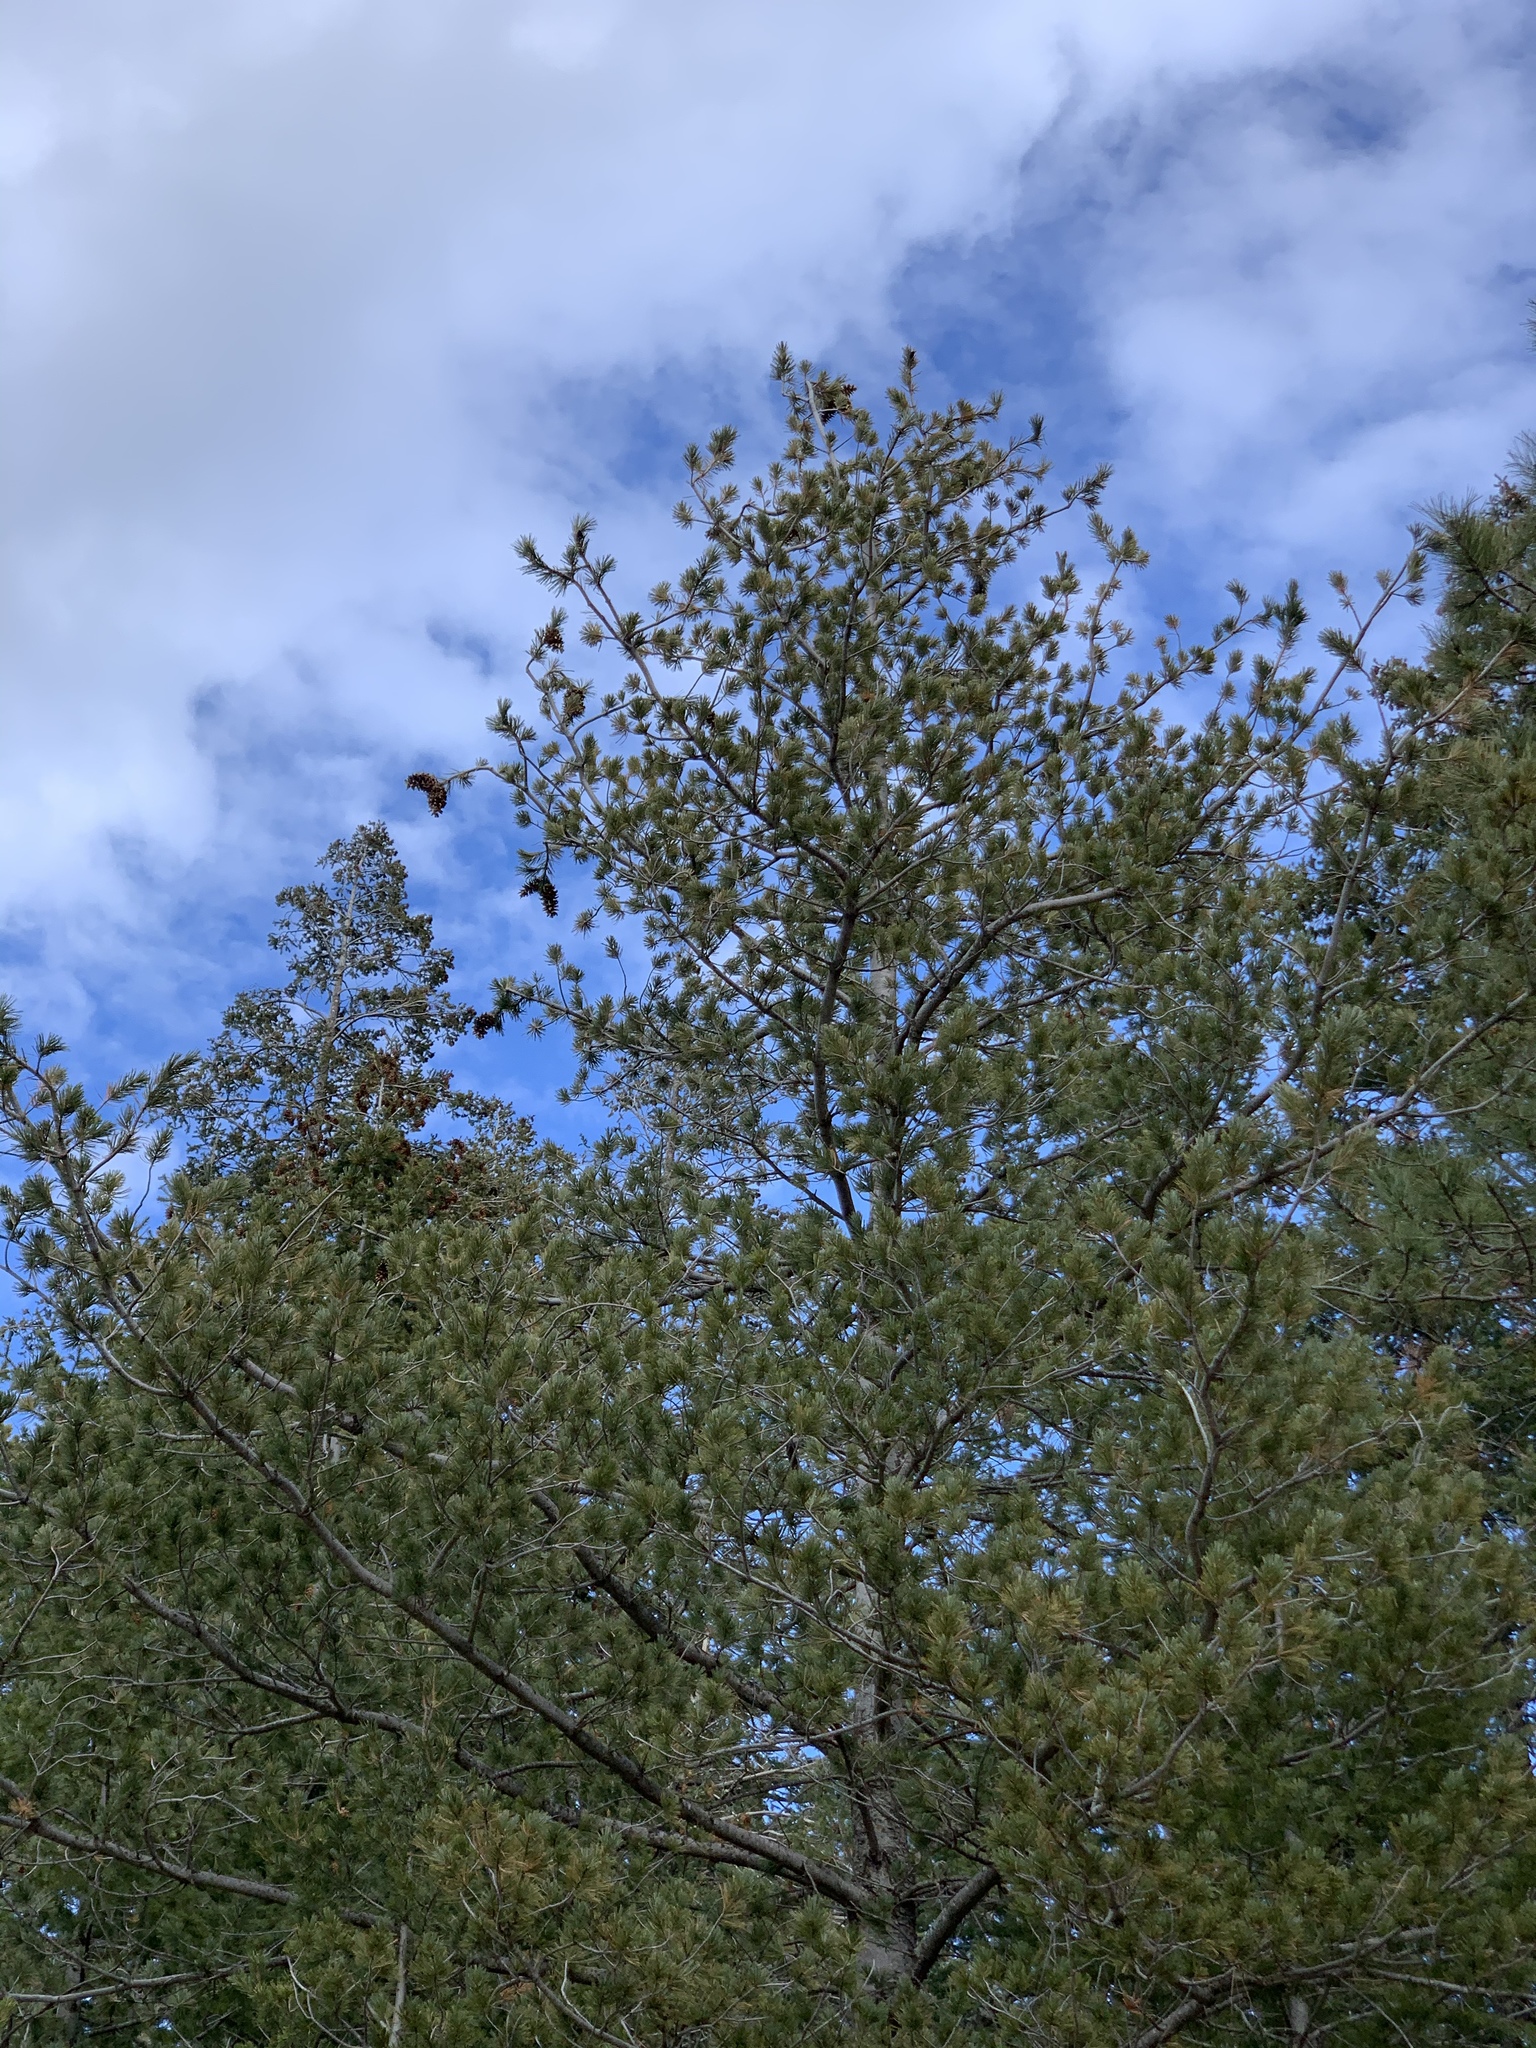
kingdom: Plantae
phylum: Tracheophyta
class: Pinopsida
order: Pinales
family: Pinaceae
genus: Pinus
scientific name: Pinus strobiformis
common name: Southwestern white pine
